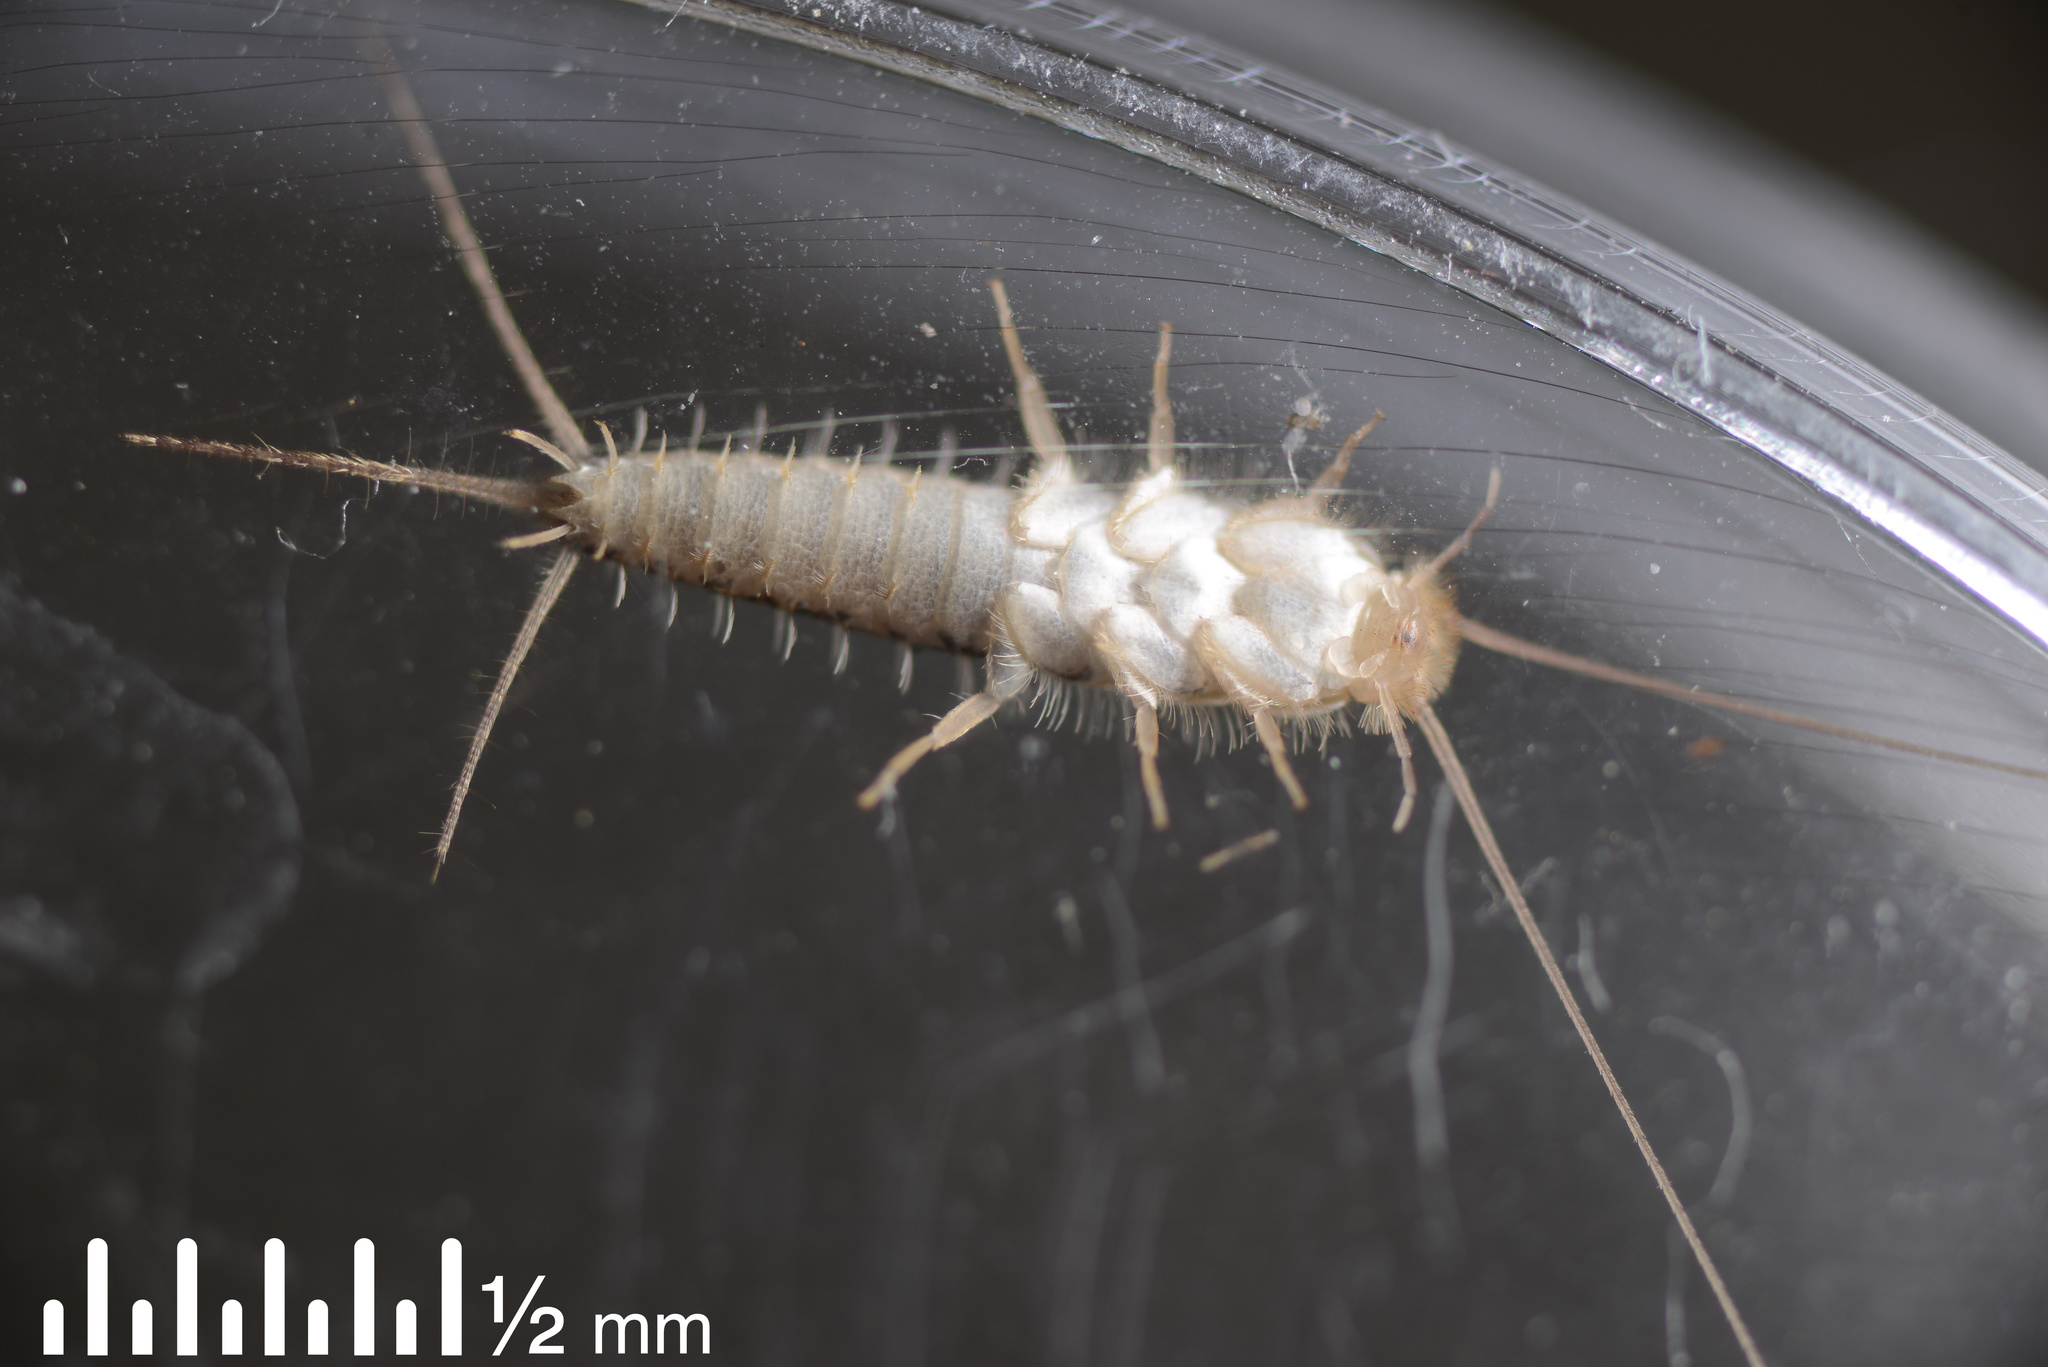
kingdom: Animalia
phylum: Arthropoda
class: Insecta
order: Zygentoma
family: Lepismatidae
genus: Ctenolepisma
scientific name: Ctenolepisma longicaudatum
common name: Silverfish
